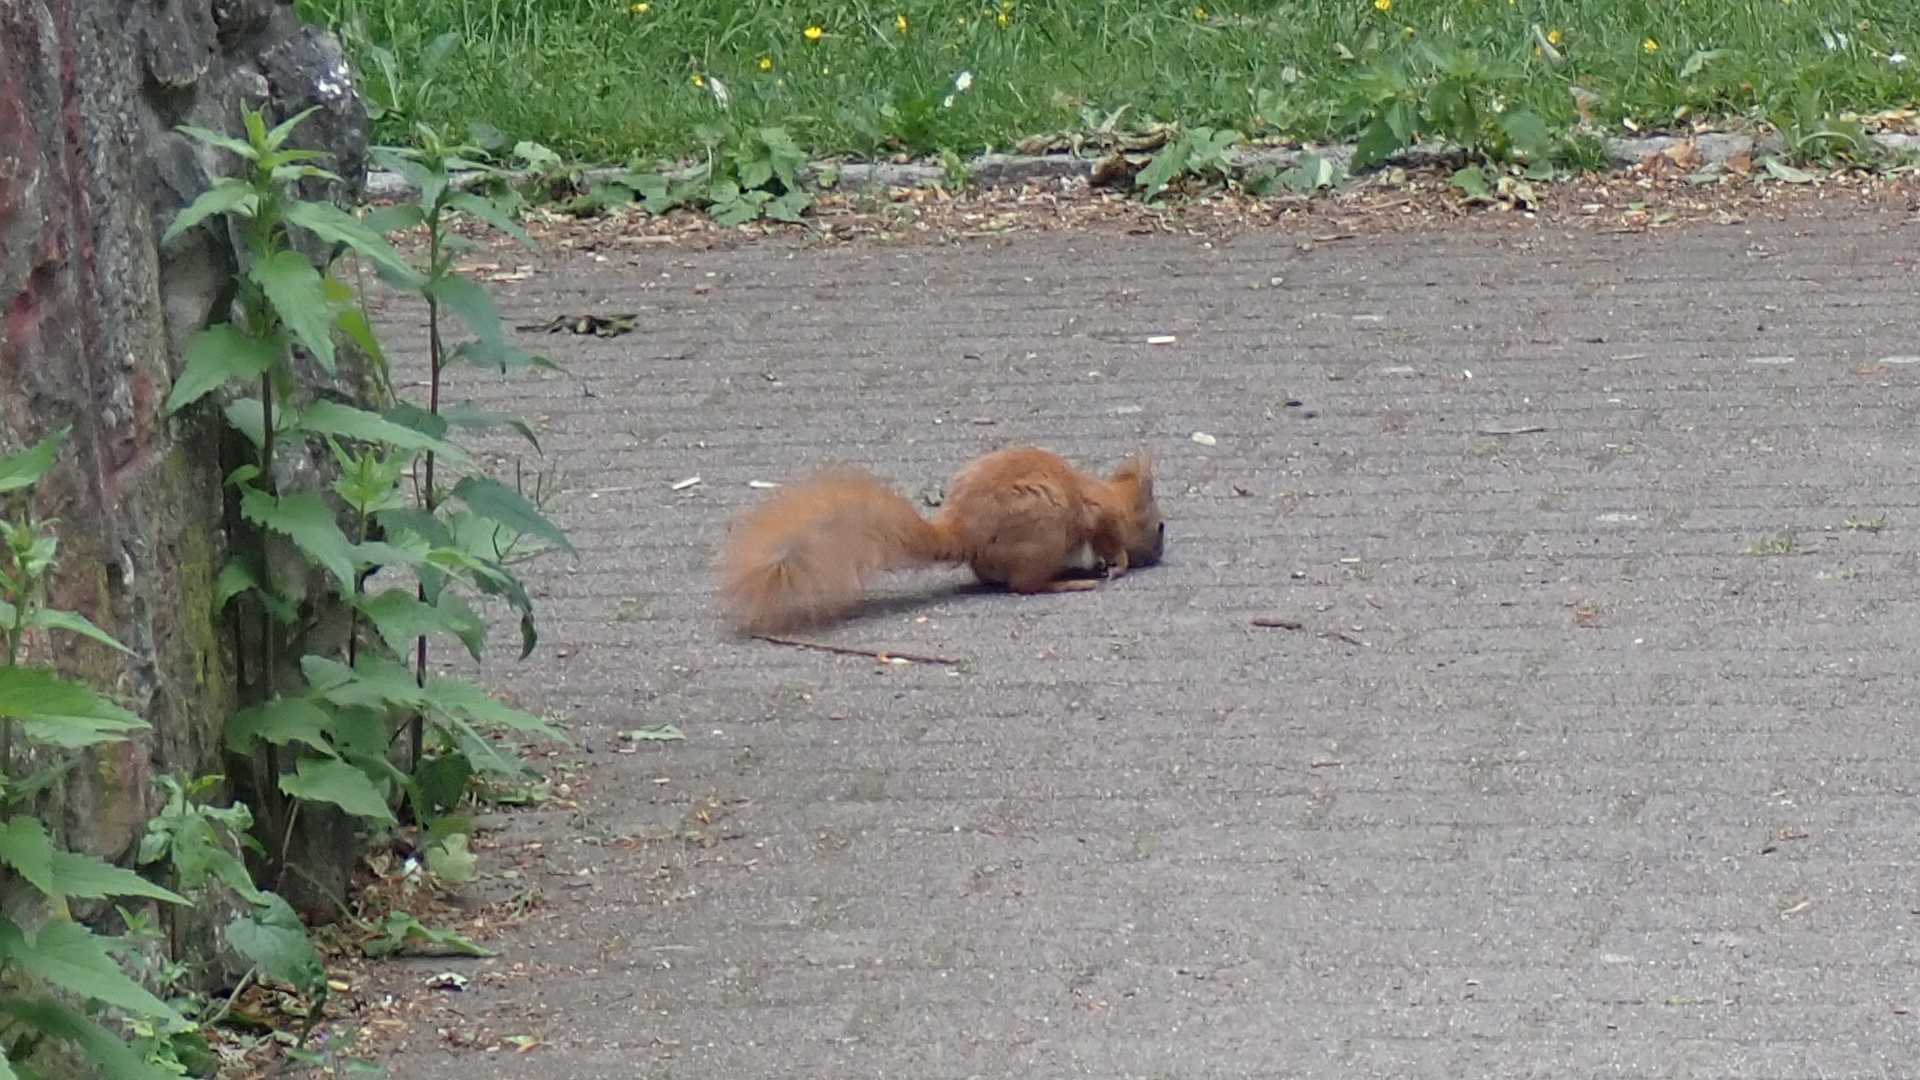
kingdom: Animalia
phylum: Chordata
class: Mammalia
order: Rodentia
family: Sciuridae
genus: Sciurus
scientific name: Sciurus vulgaris
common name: Eurasian red squirrel
